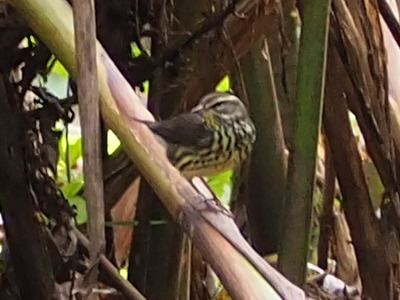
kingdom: Animalia
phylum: Chordata
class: Aves
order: Passeriformes
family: Parulidae
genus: Parkesia
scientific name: Parkesia noveboracensis
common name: Northern waterthrush
